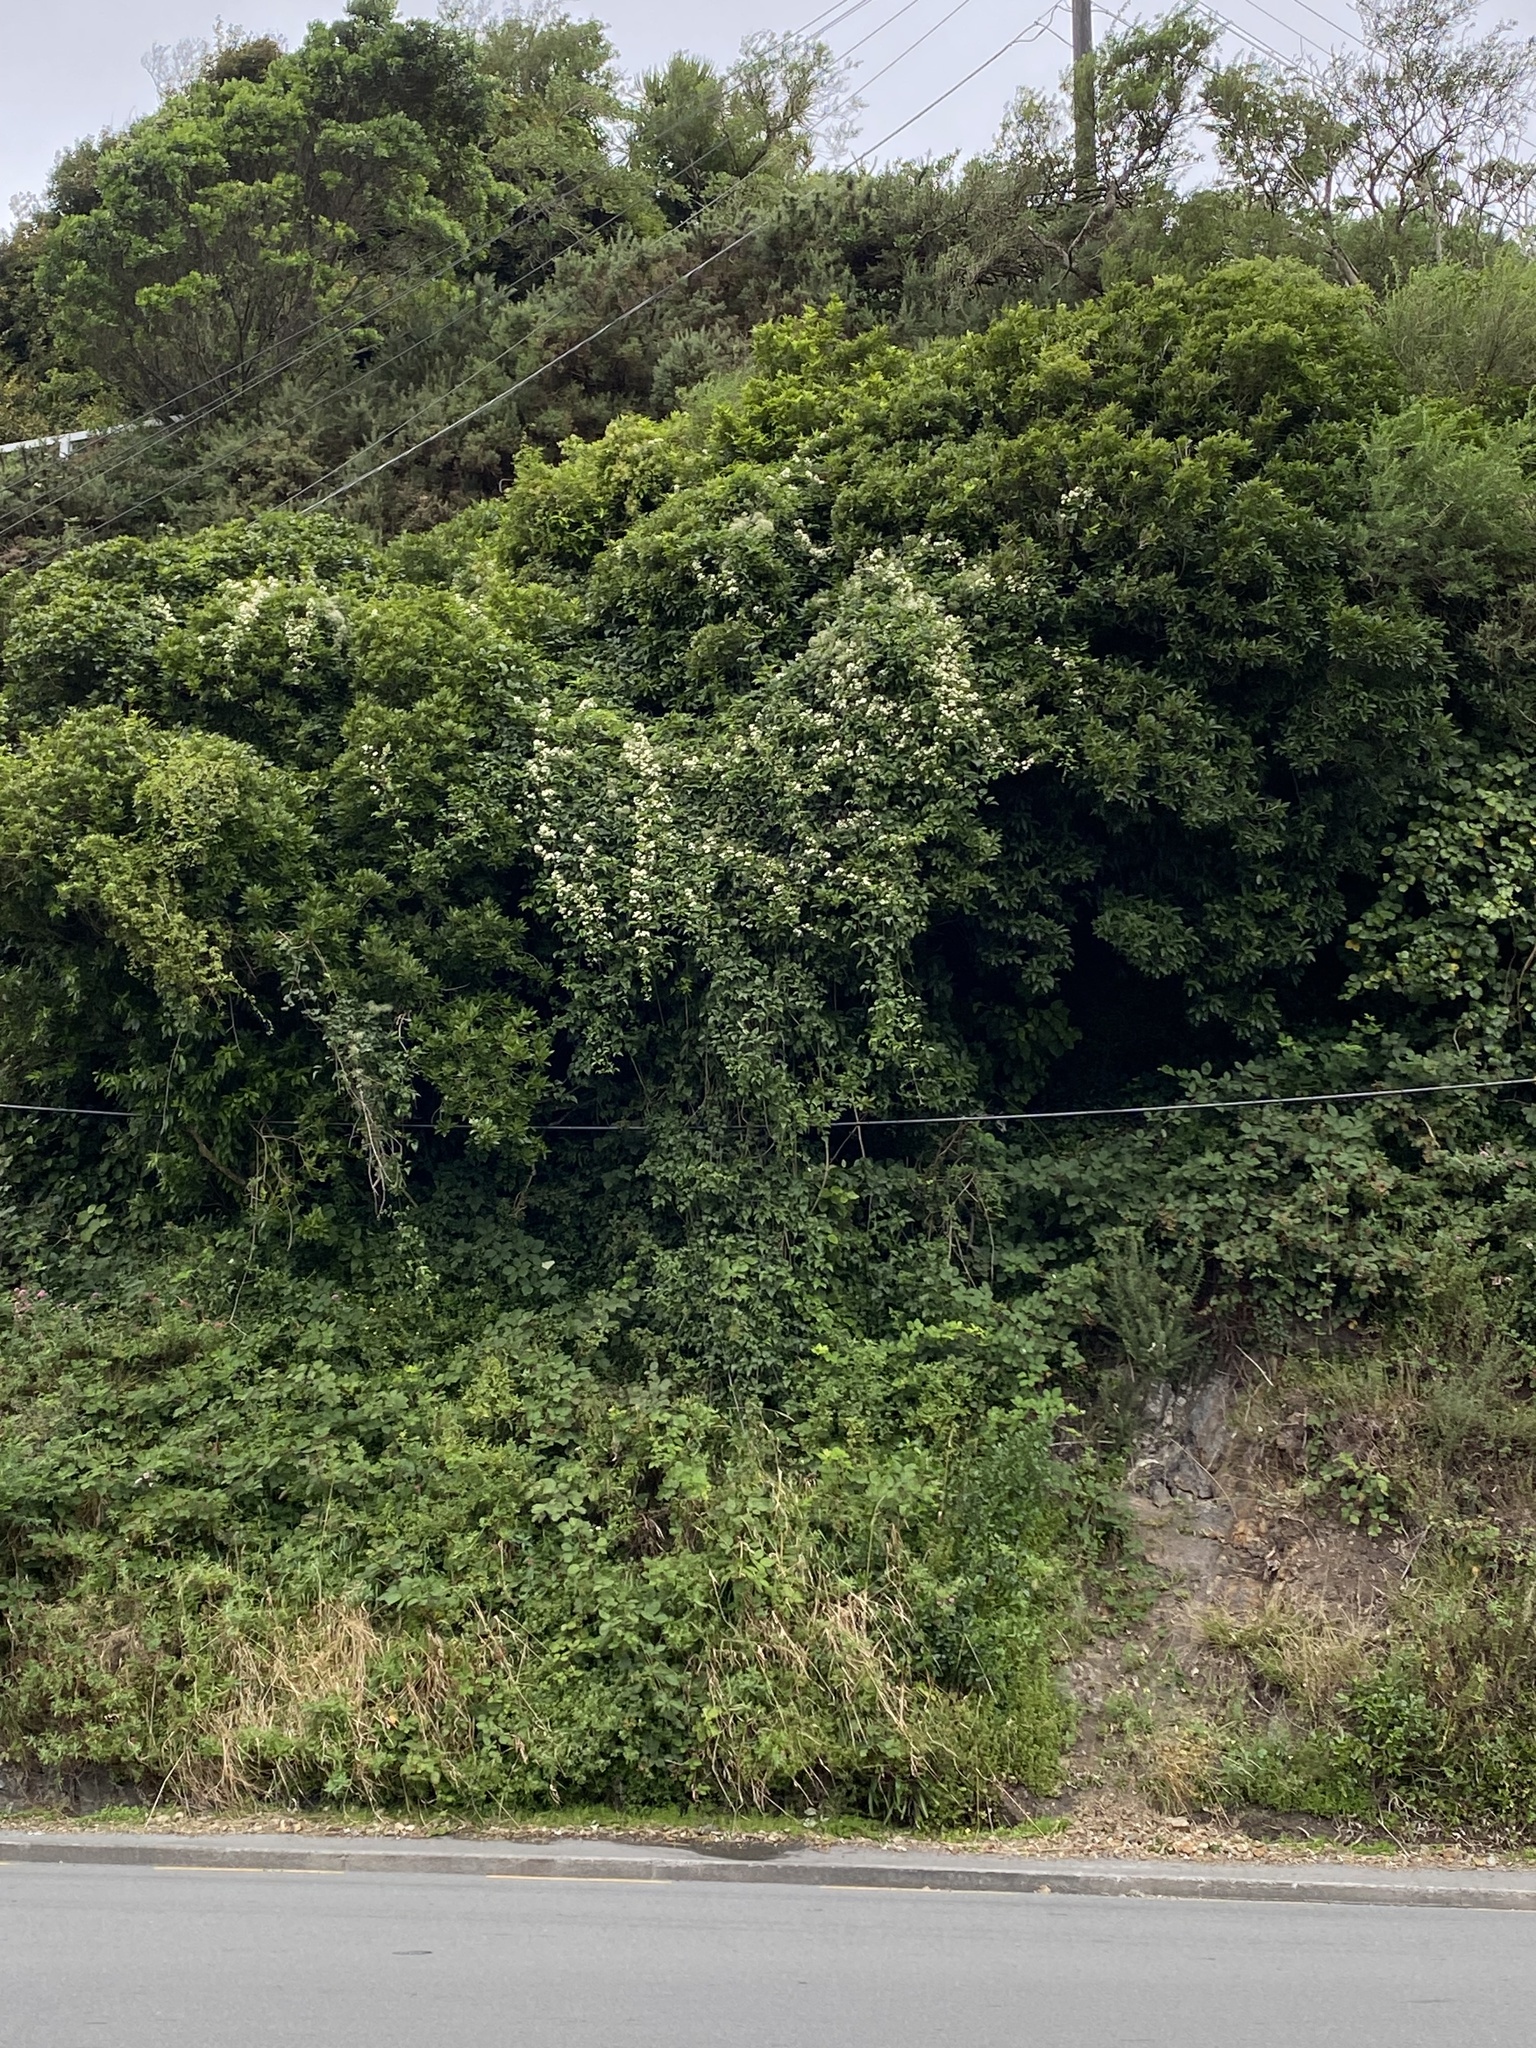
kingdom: Plantae
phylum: Tracheophyta
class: Magnoliopsida
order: Ranunculales
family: Ranunculaceae
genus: Clematis
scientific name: Clematis vitalba
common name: Evergreen clematis
